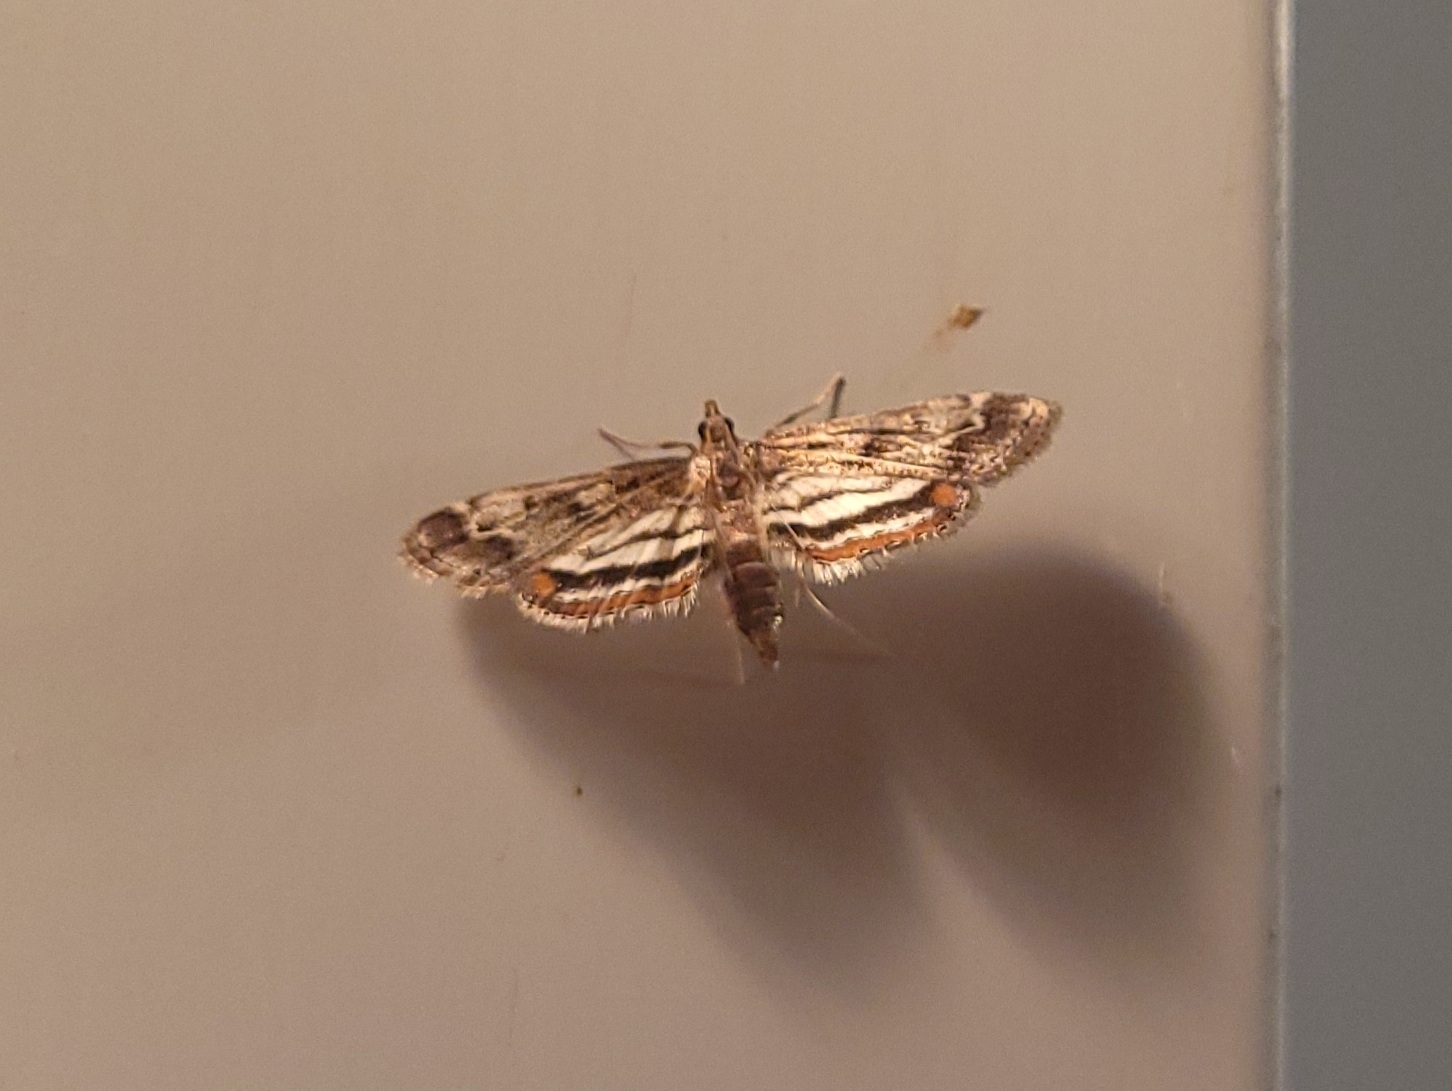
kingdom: Animalia
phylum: Arthropoda
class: Insecta
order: Lepidoptera
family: Crambidae
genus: Parapoynx
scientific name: Parapoynx obscuralis
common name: American china-mark
